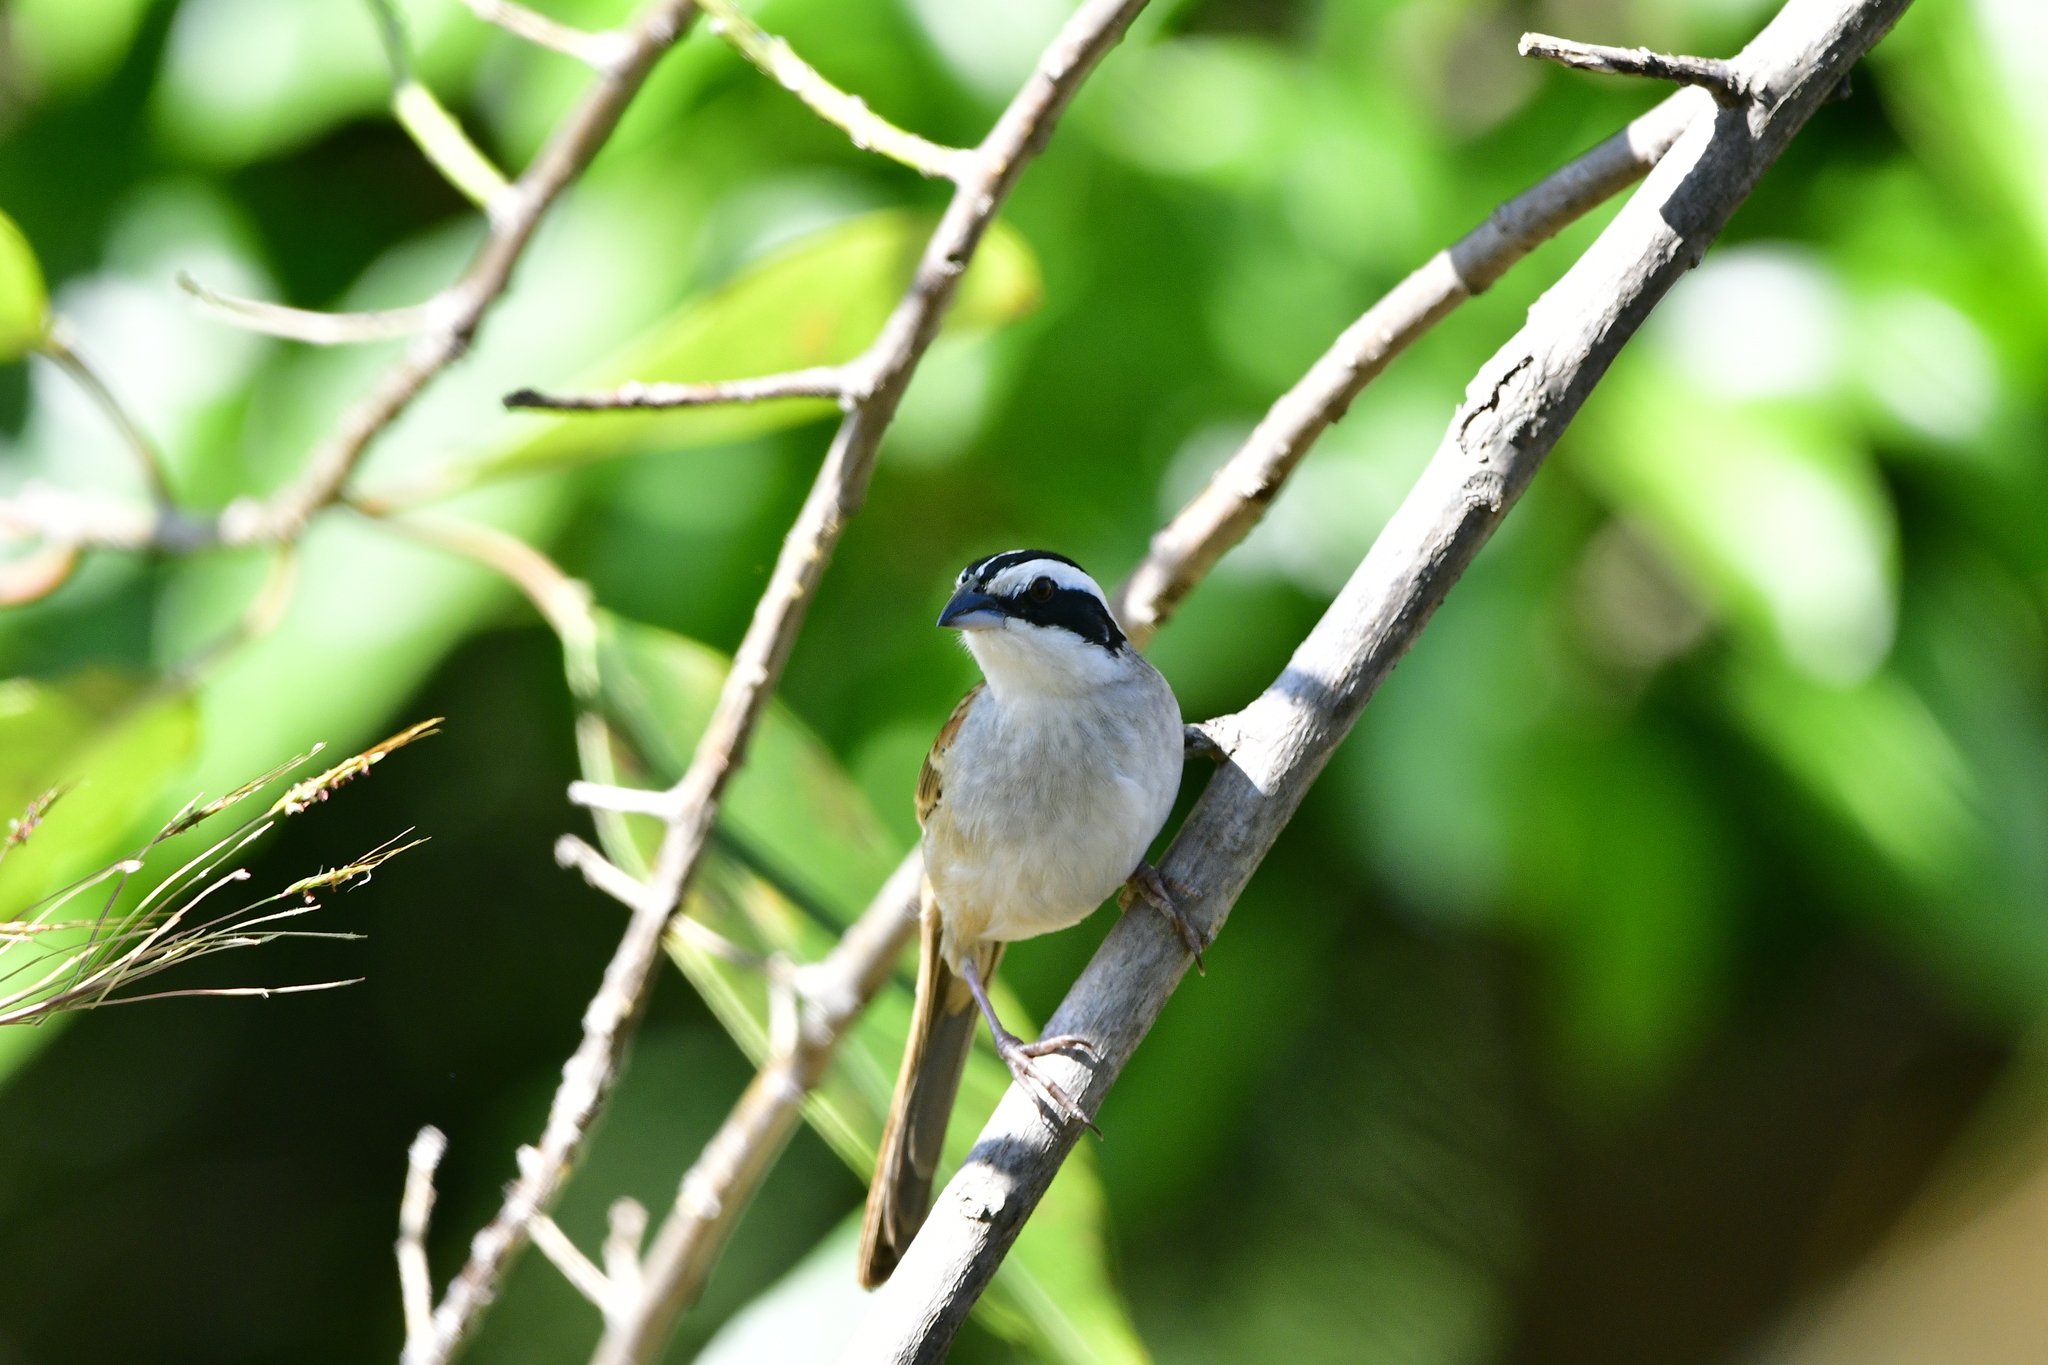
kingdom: Animalia
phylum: Chordata
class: Aves
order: Passeriformes
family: Passerellidae
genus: Peucaea
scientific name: Peucaea ruficauda
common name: Stripe-headed sparrow
